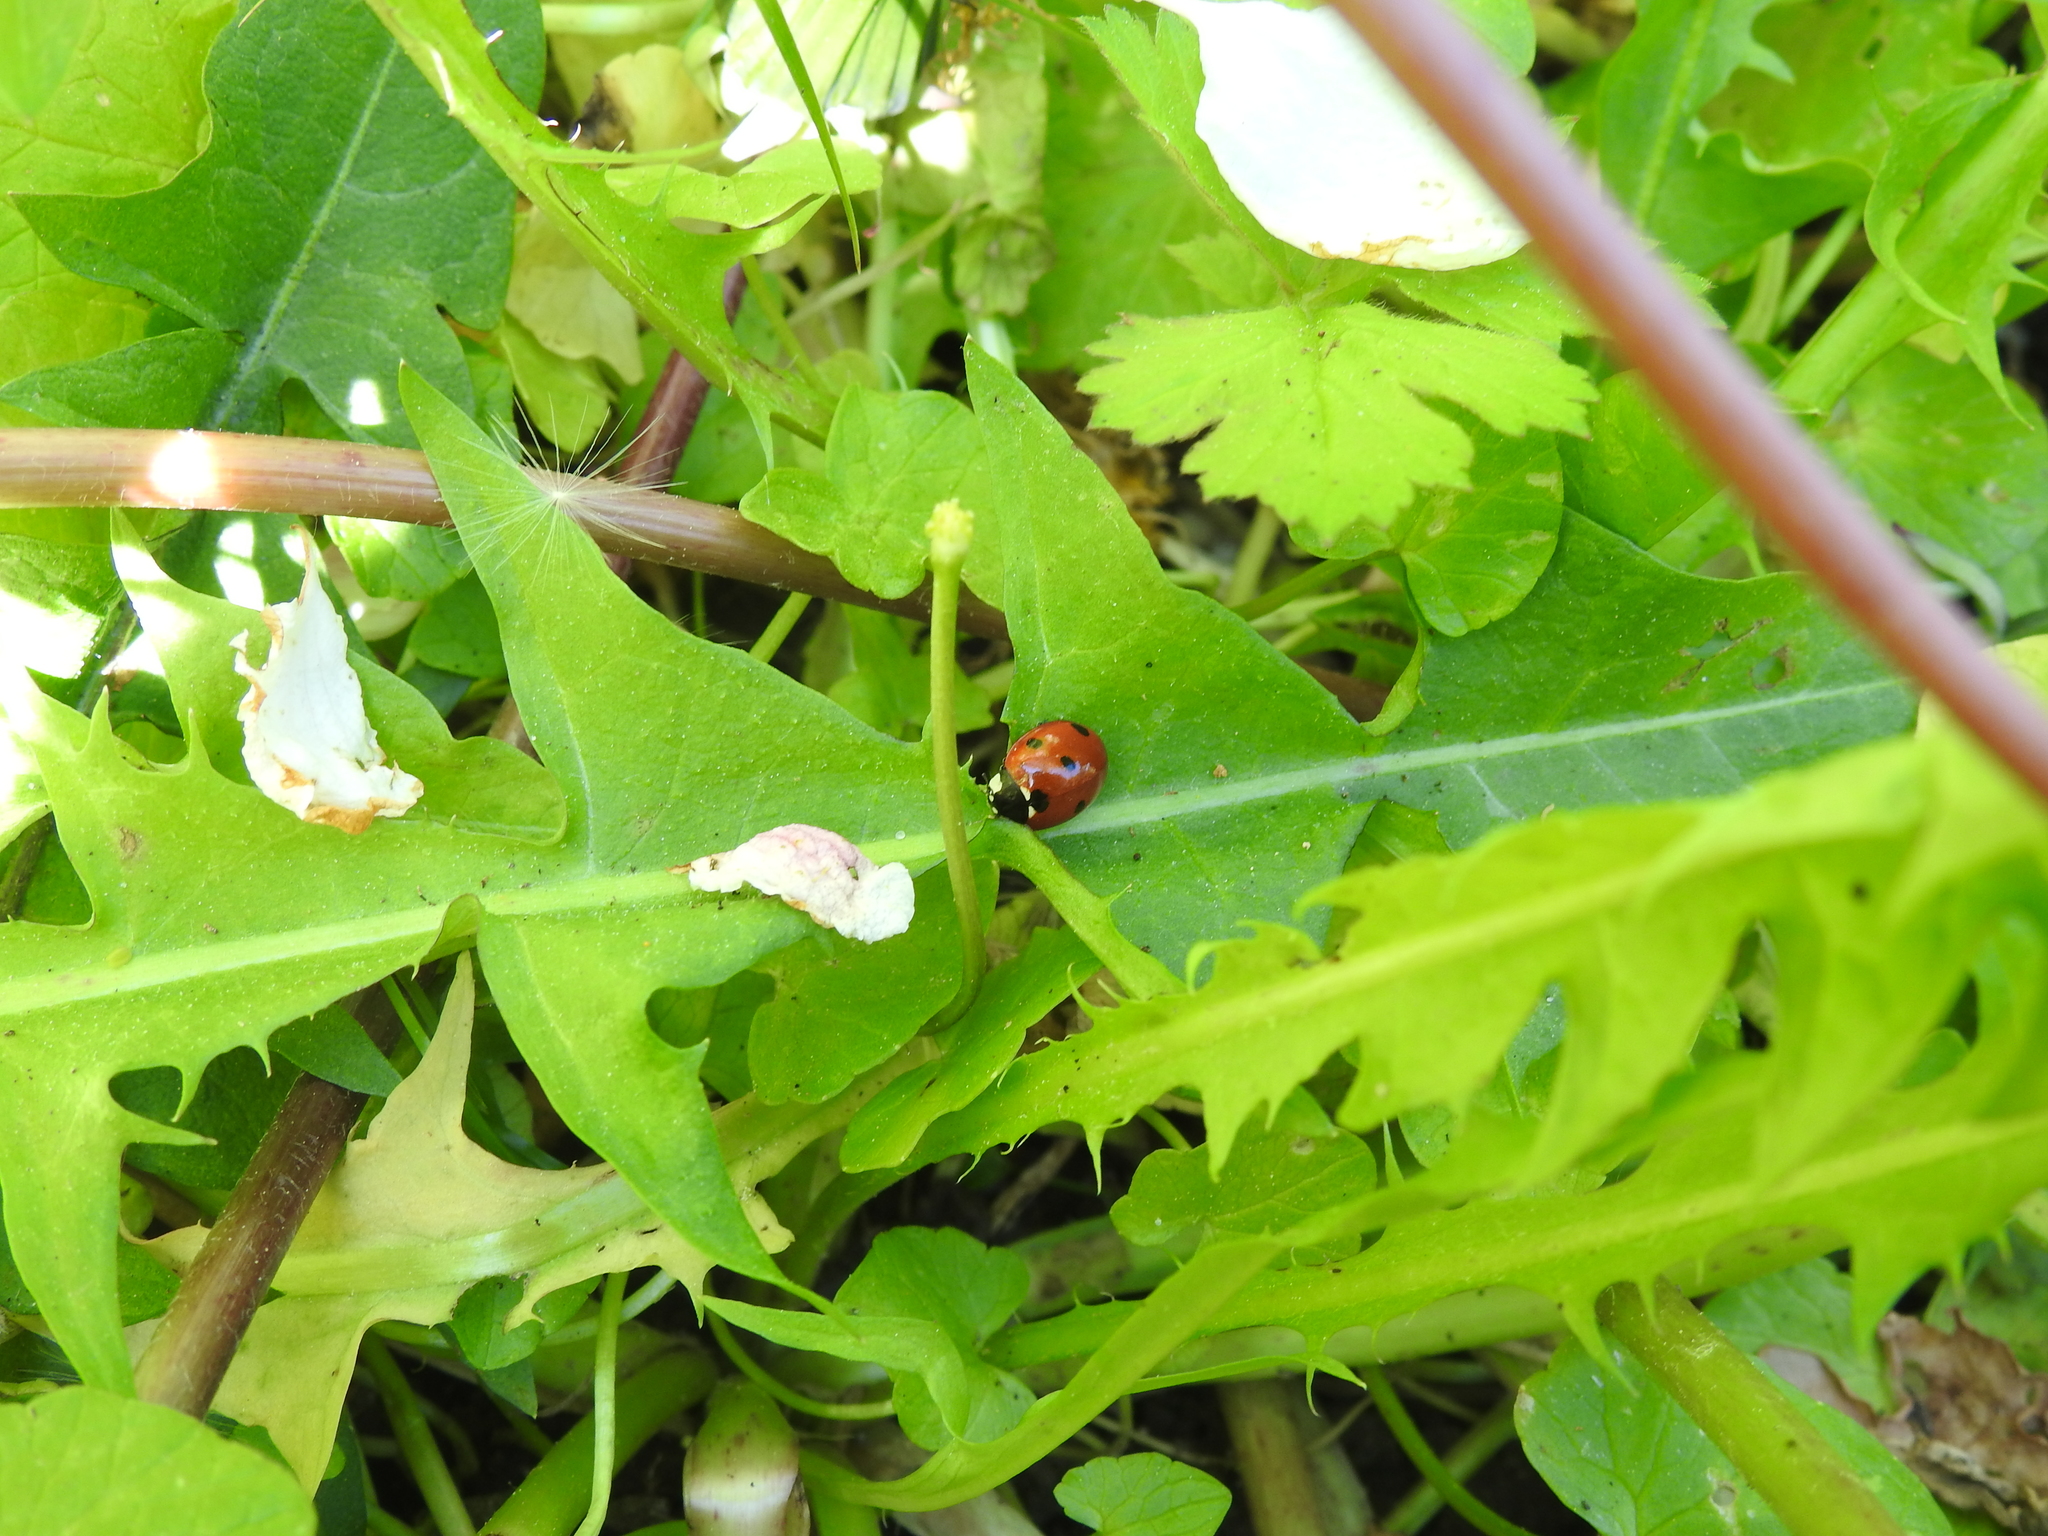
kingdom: Animalia
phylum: Arthropoda
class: Insecta
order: Coleoptera
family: Coccinellidae
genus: Coccinella
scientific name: Coccinella septempunctata
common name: Sevenspotted lady beetle
